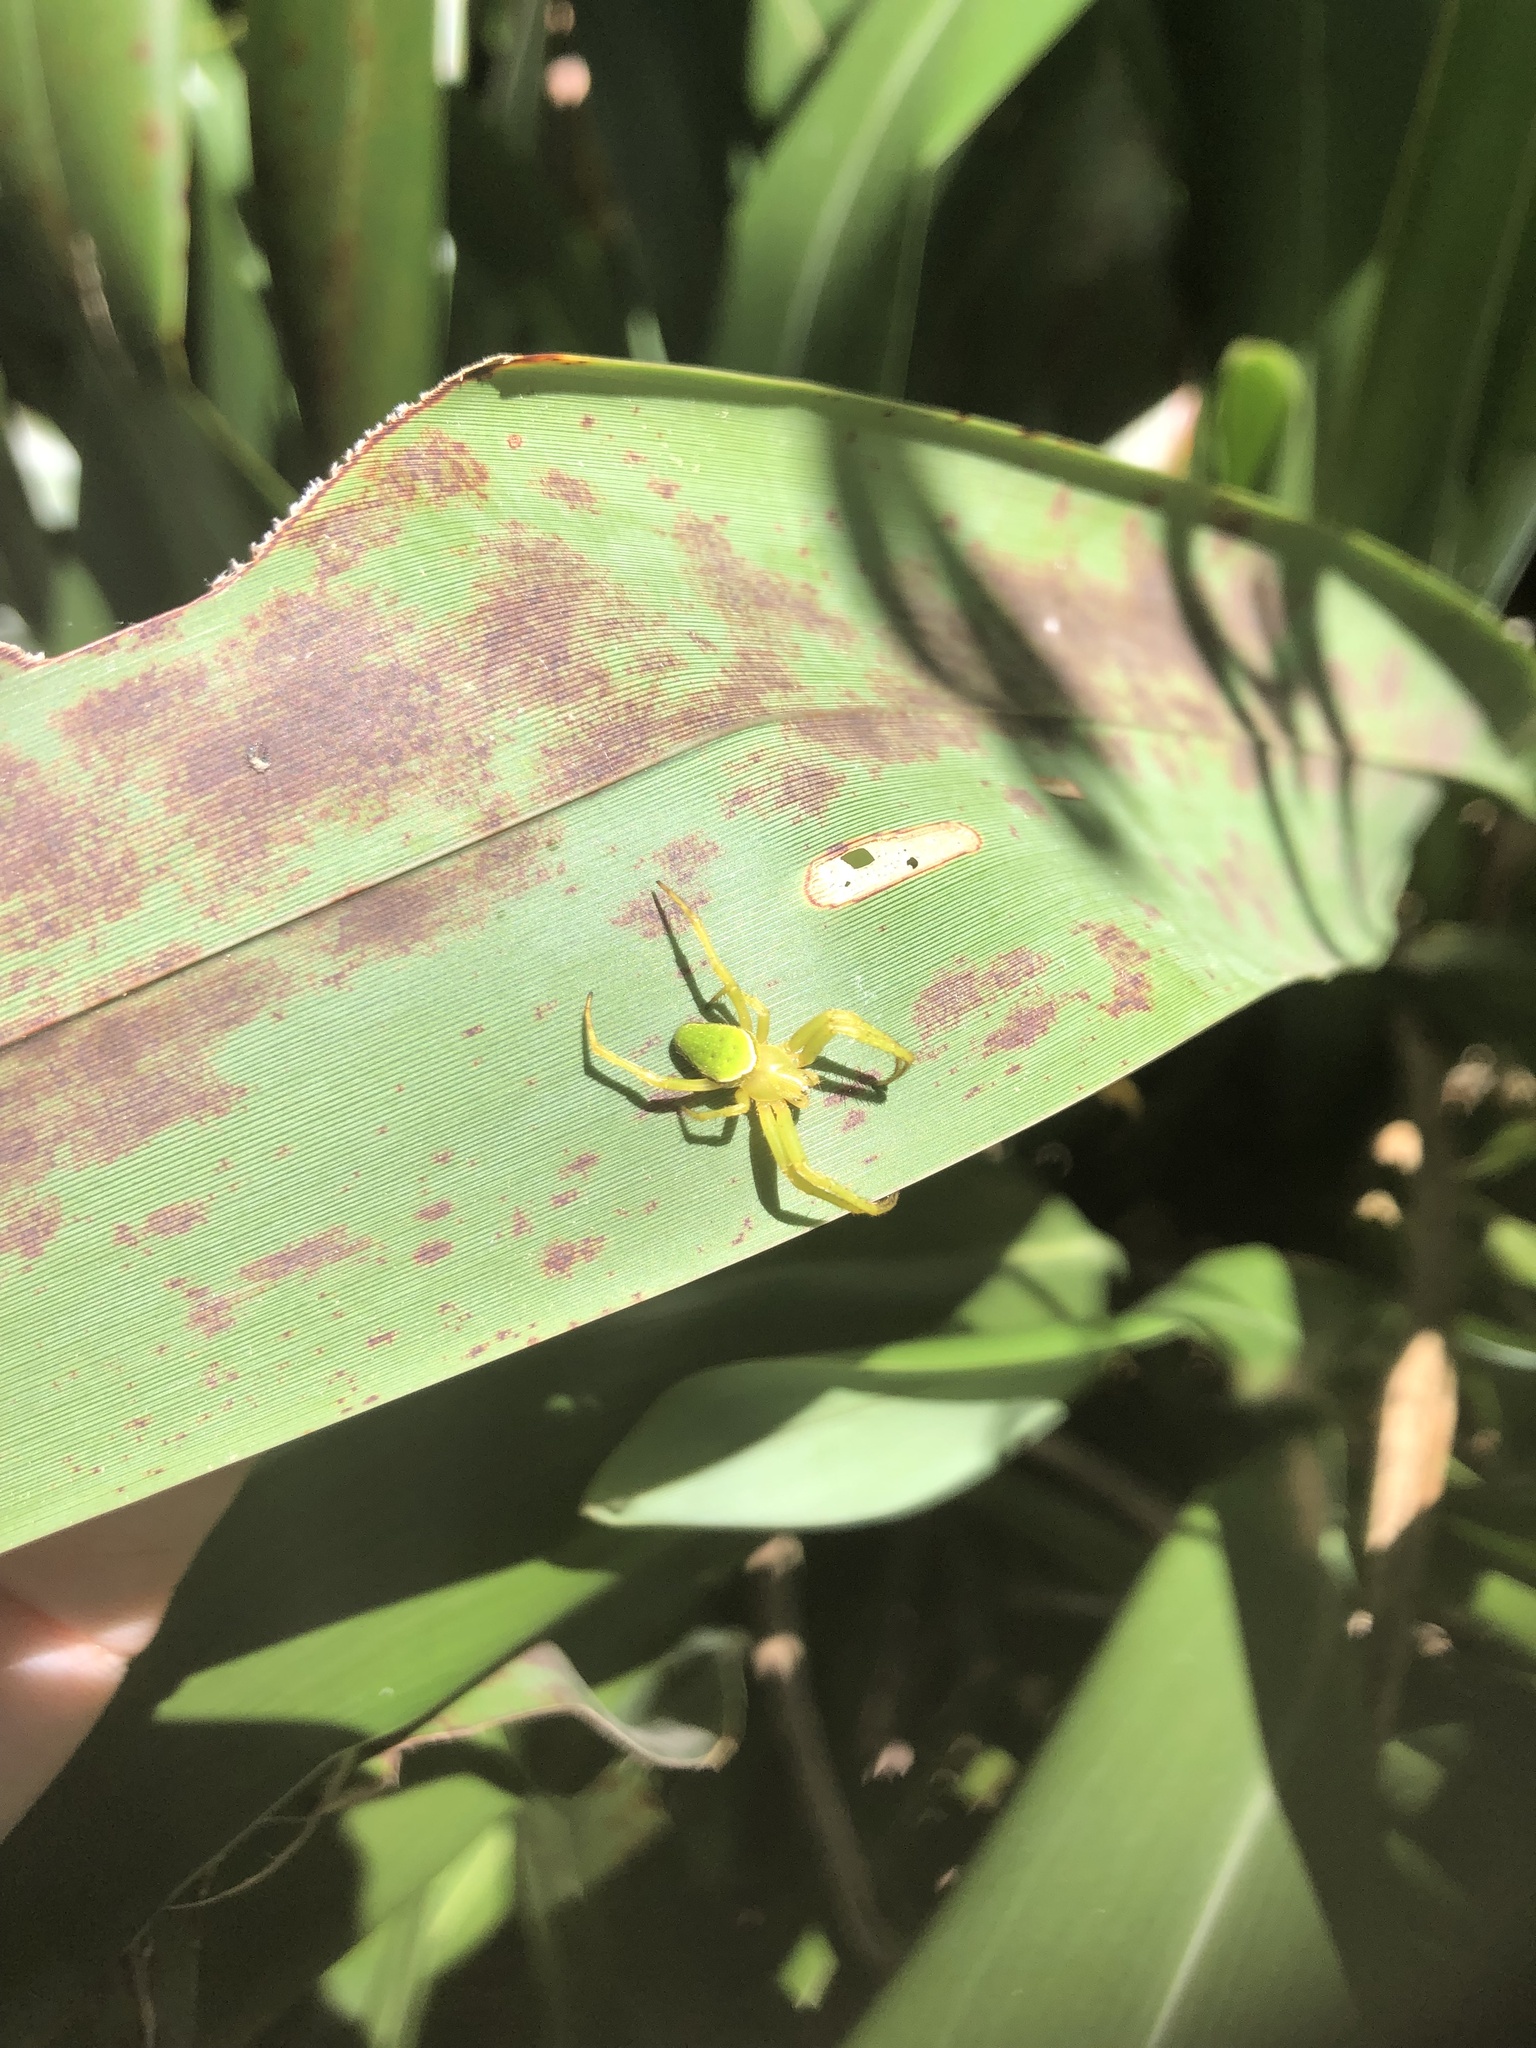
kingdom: Animalia
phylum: Arthropoda
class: Arachnida
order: Araneae
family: Araneidae
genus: Colaranea
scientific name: Colaranea viriditas
